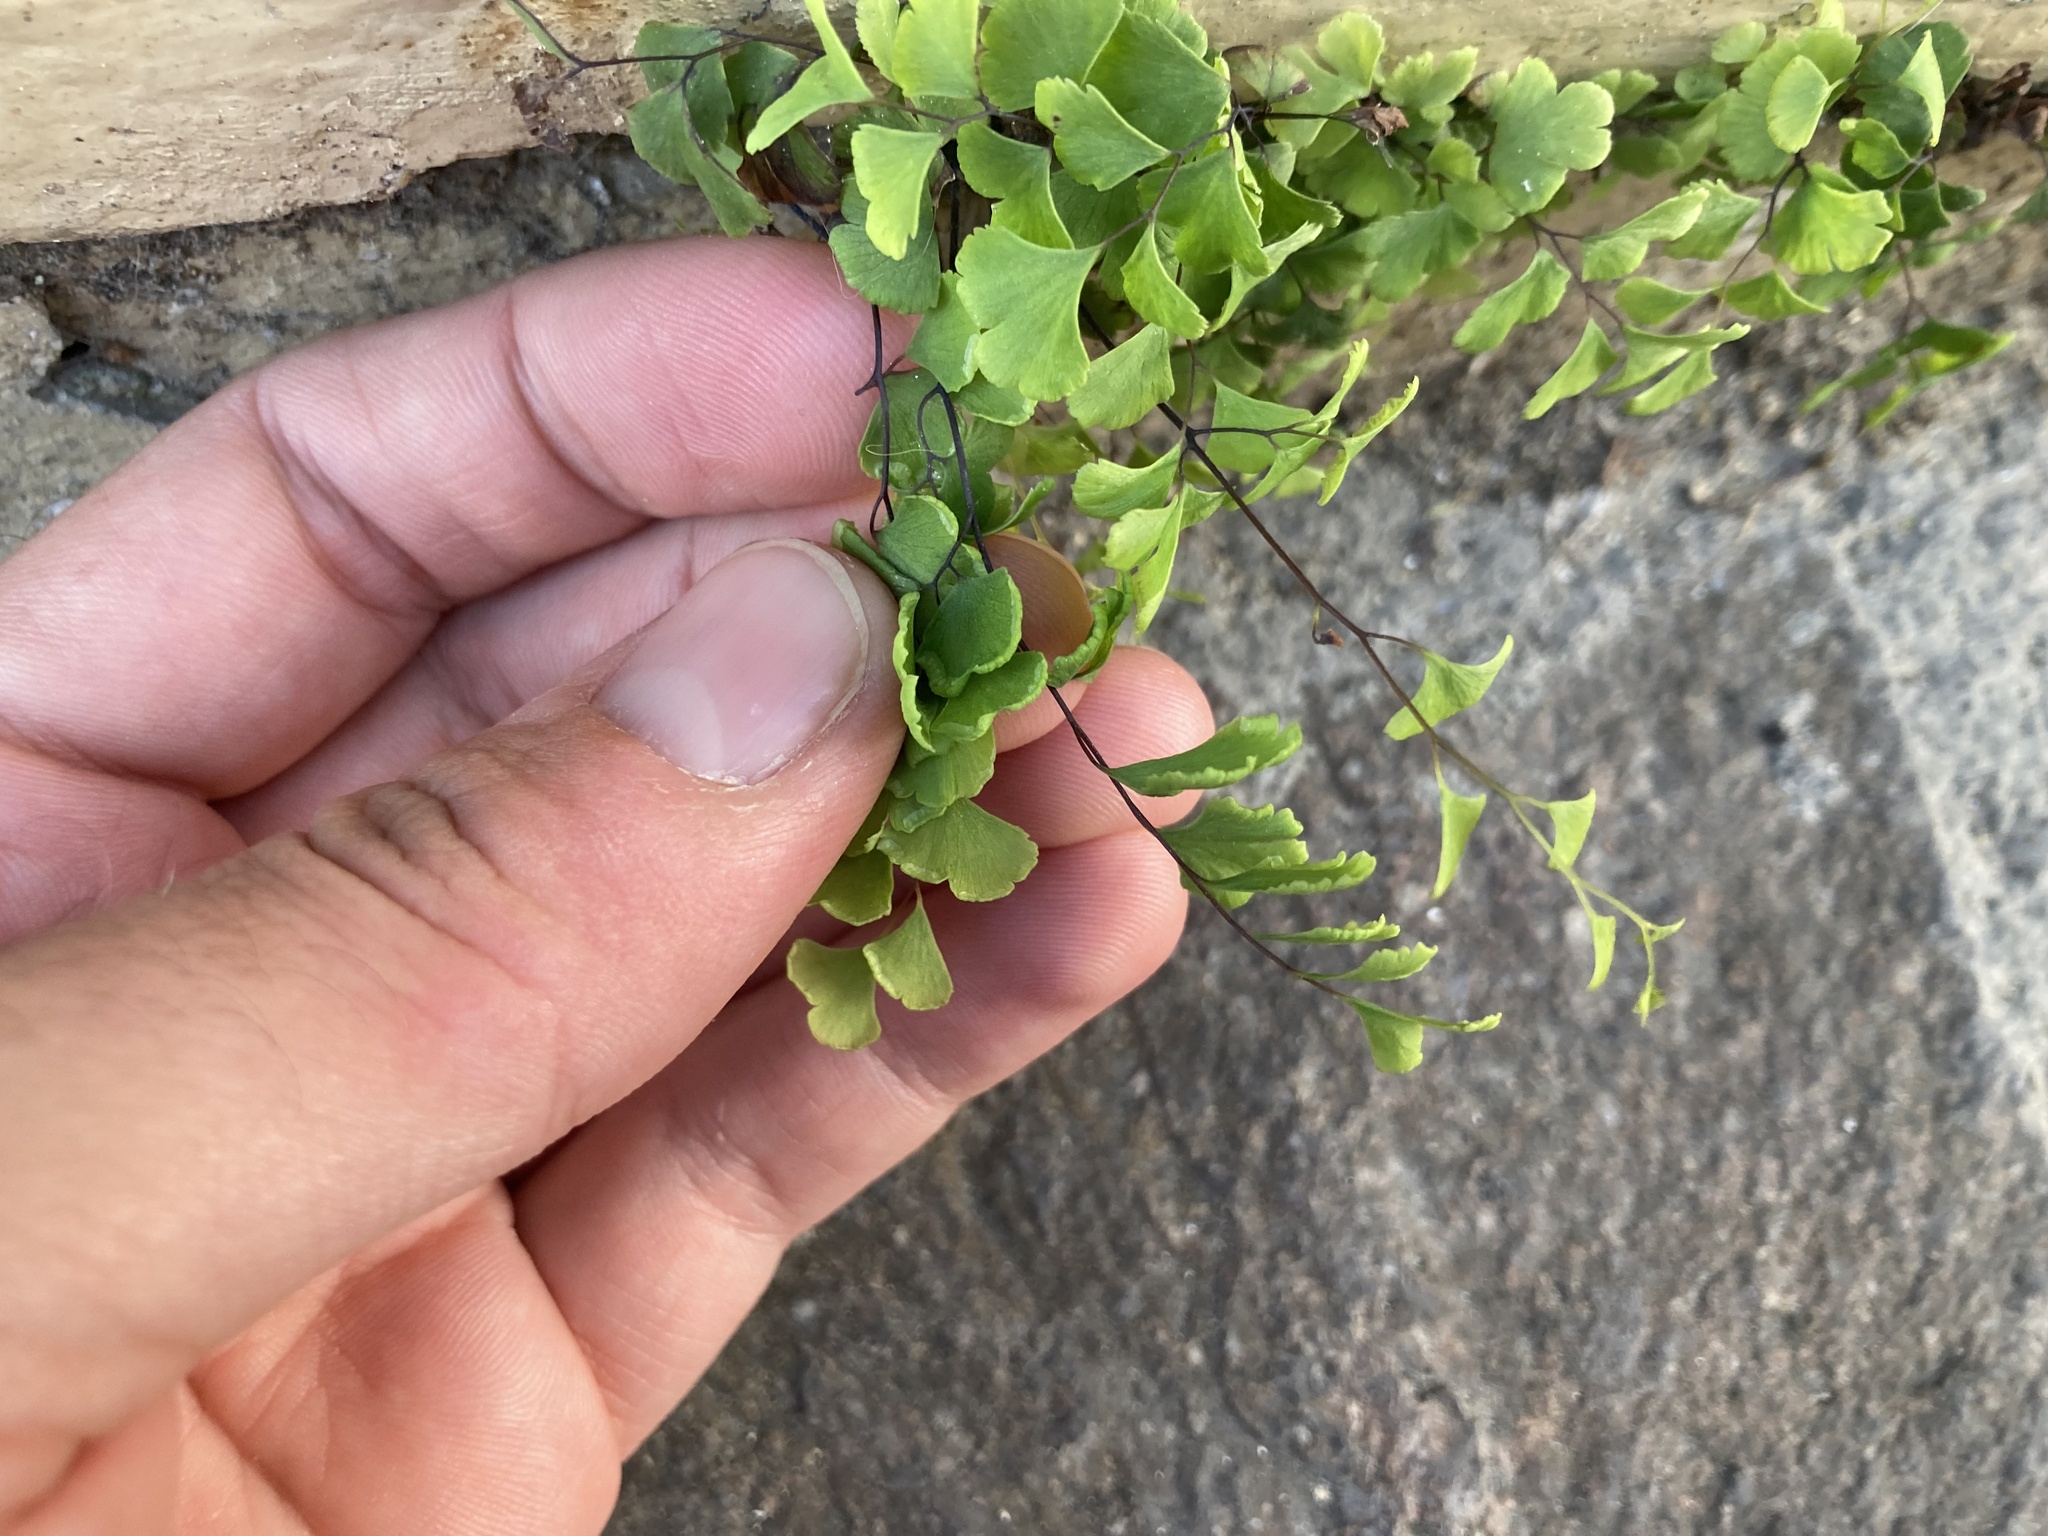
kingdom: Plantae
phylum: Tracheophyta
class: Polypodiopsida
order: Polypodiales
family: Pteridaceae
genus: Adiantum
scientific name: Adiantum capillus-veneris
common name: Maidenhair fern
